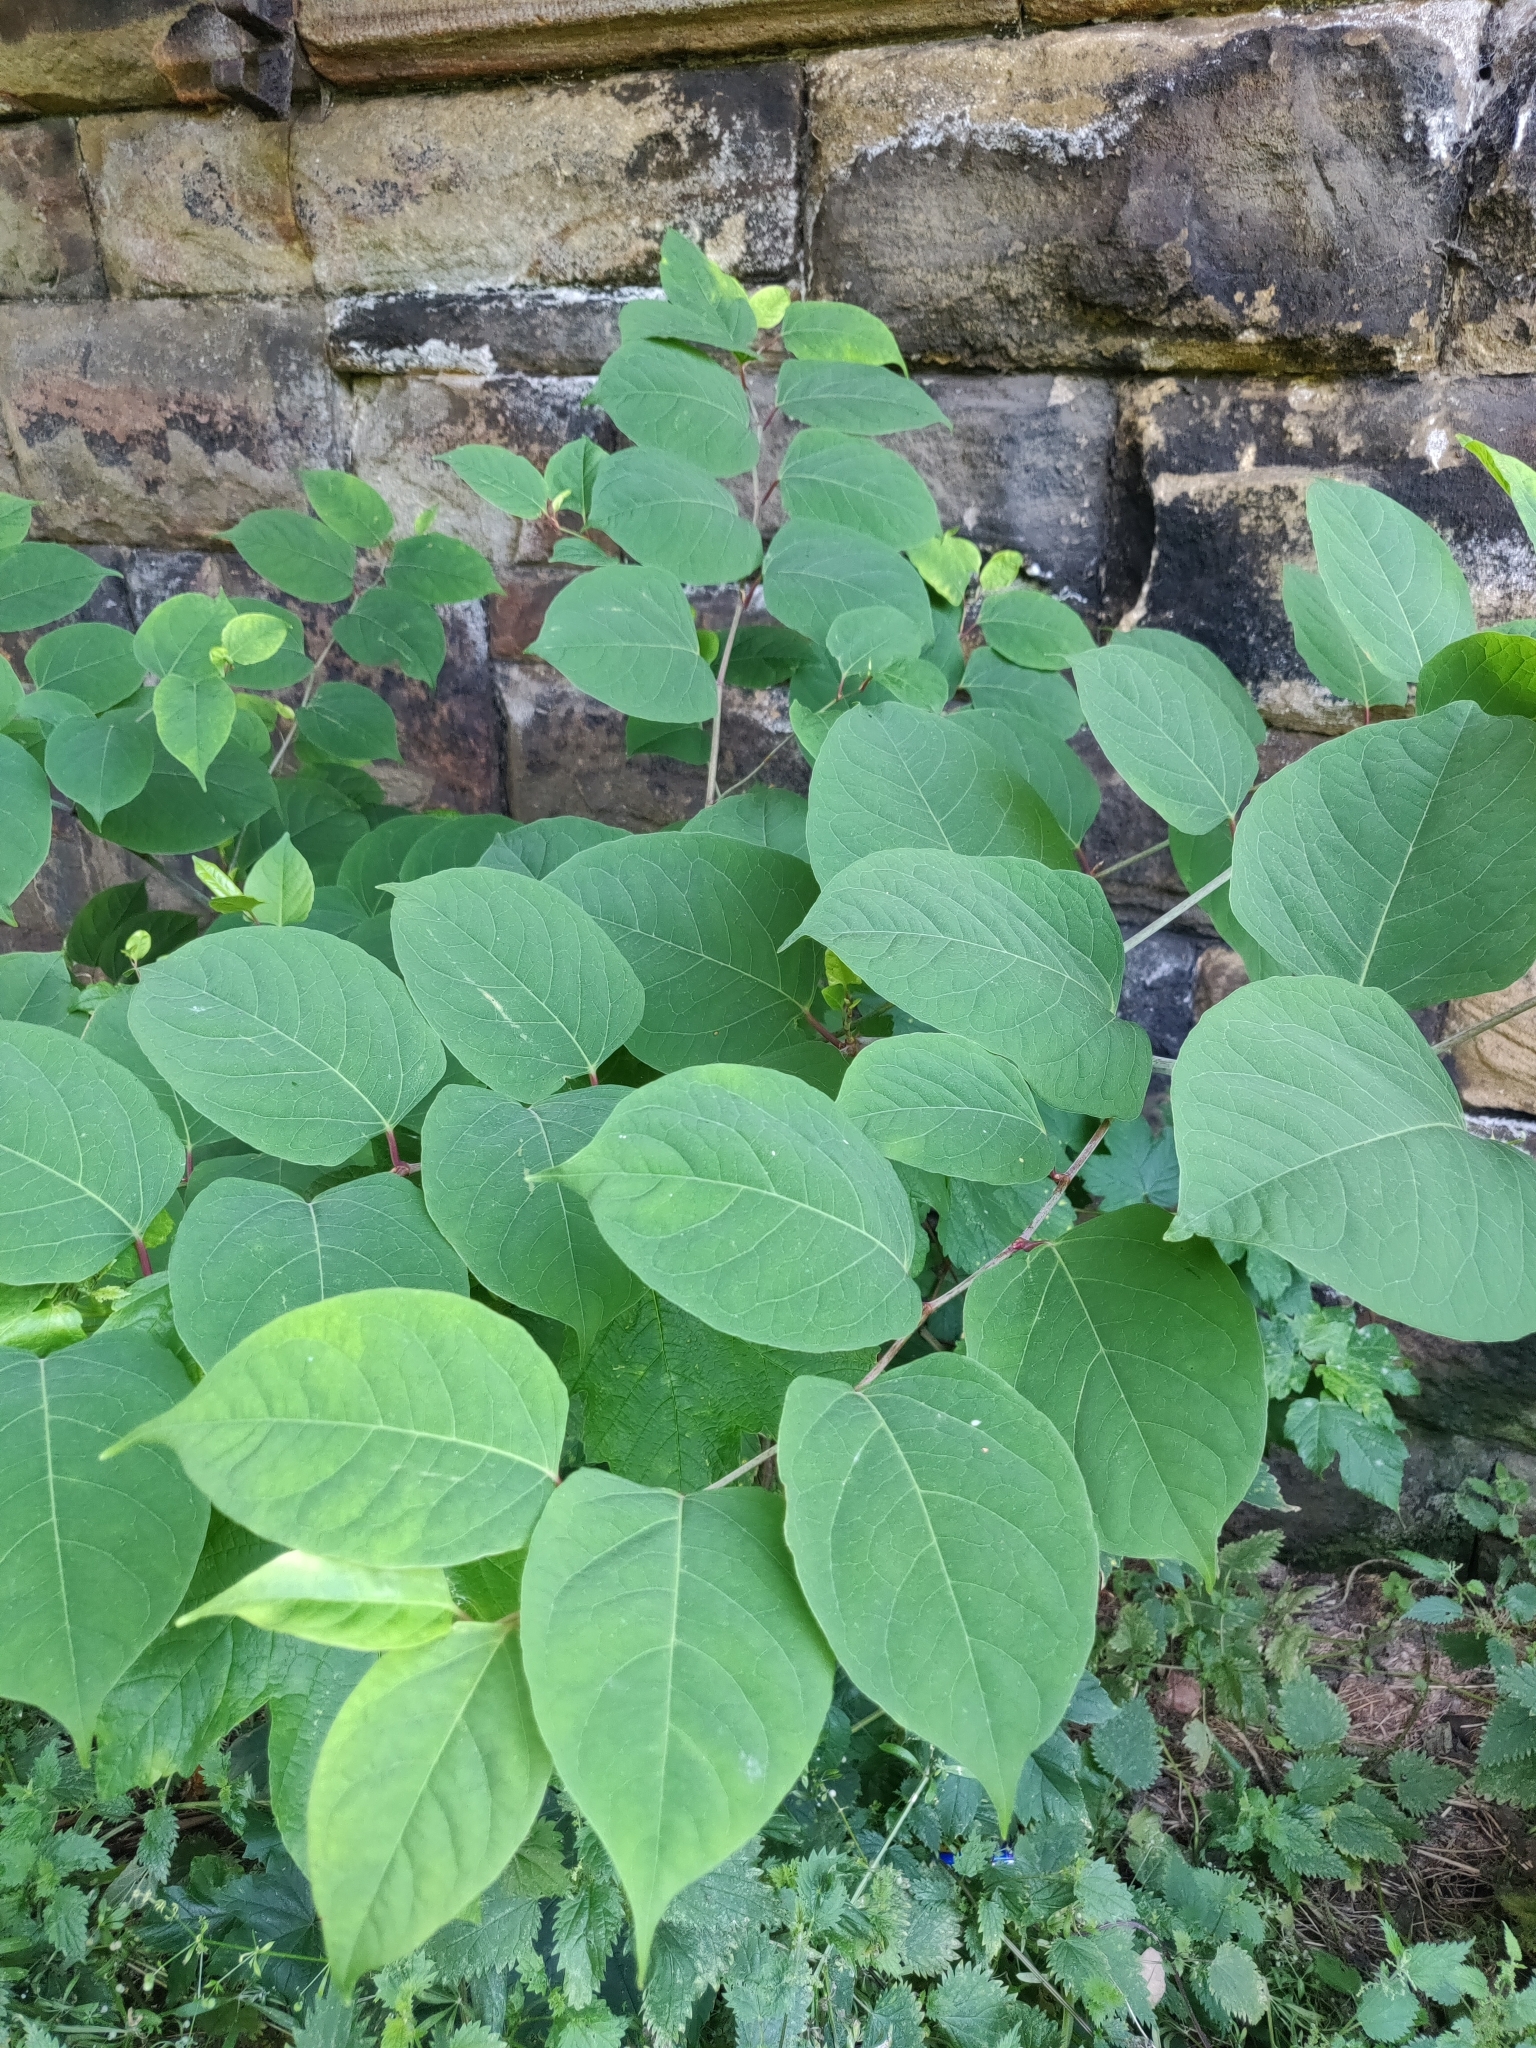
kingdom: Plantae
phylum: Tracheophyta
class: Magnoliopsida
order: Caryophyllales
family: Polygonaceae
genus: Reynoutria
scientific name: Reynoutria japonica
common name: Japanese knotweed
